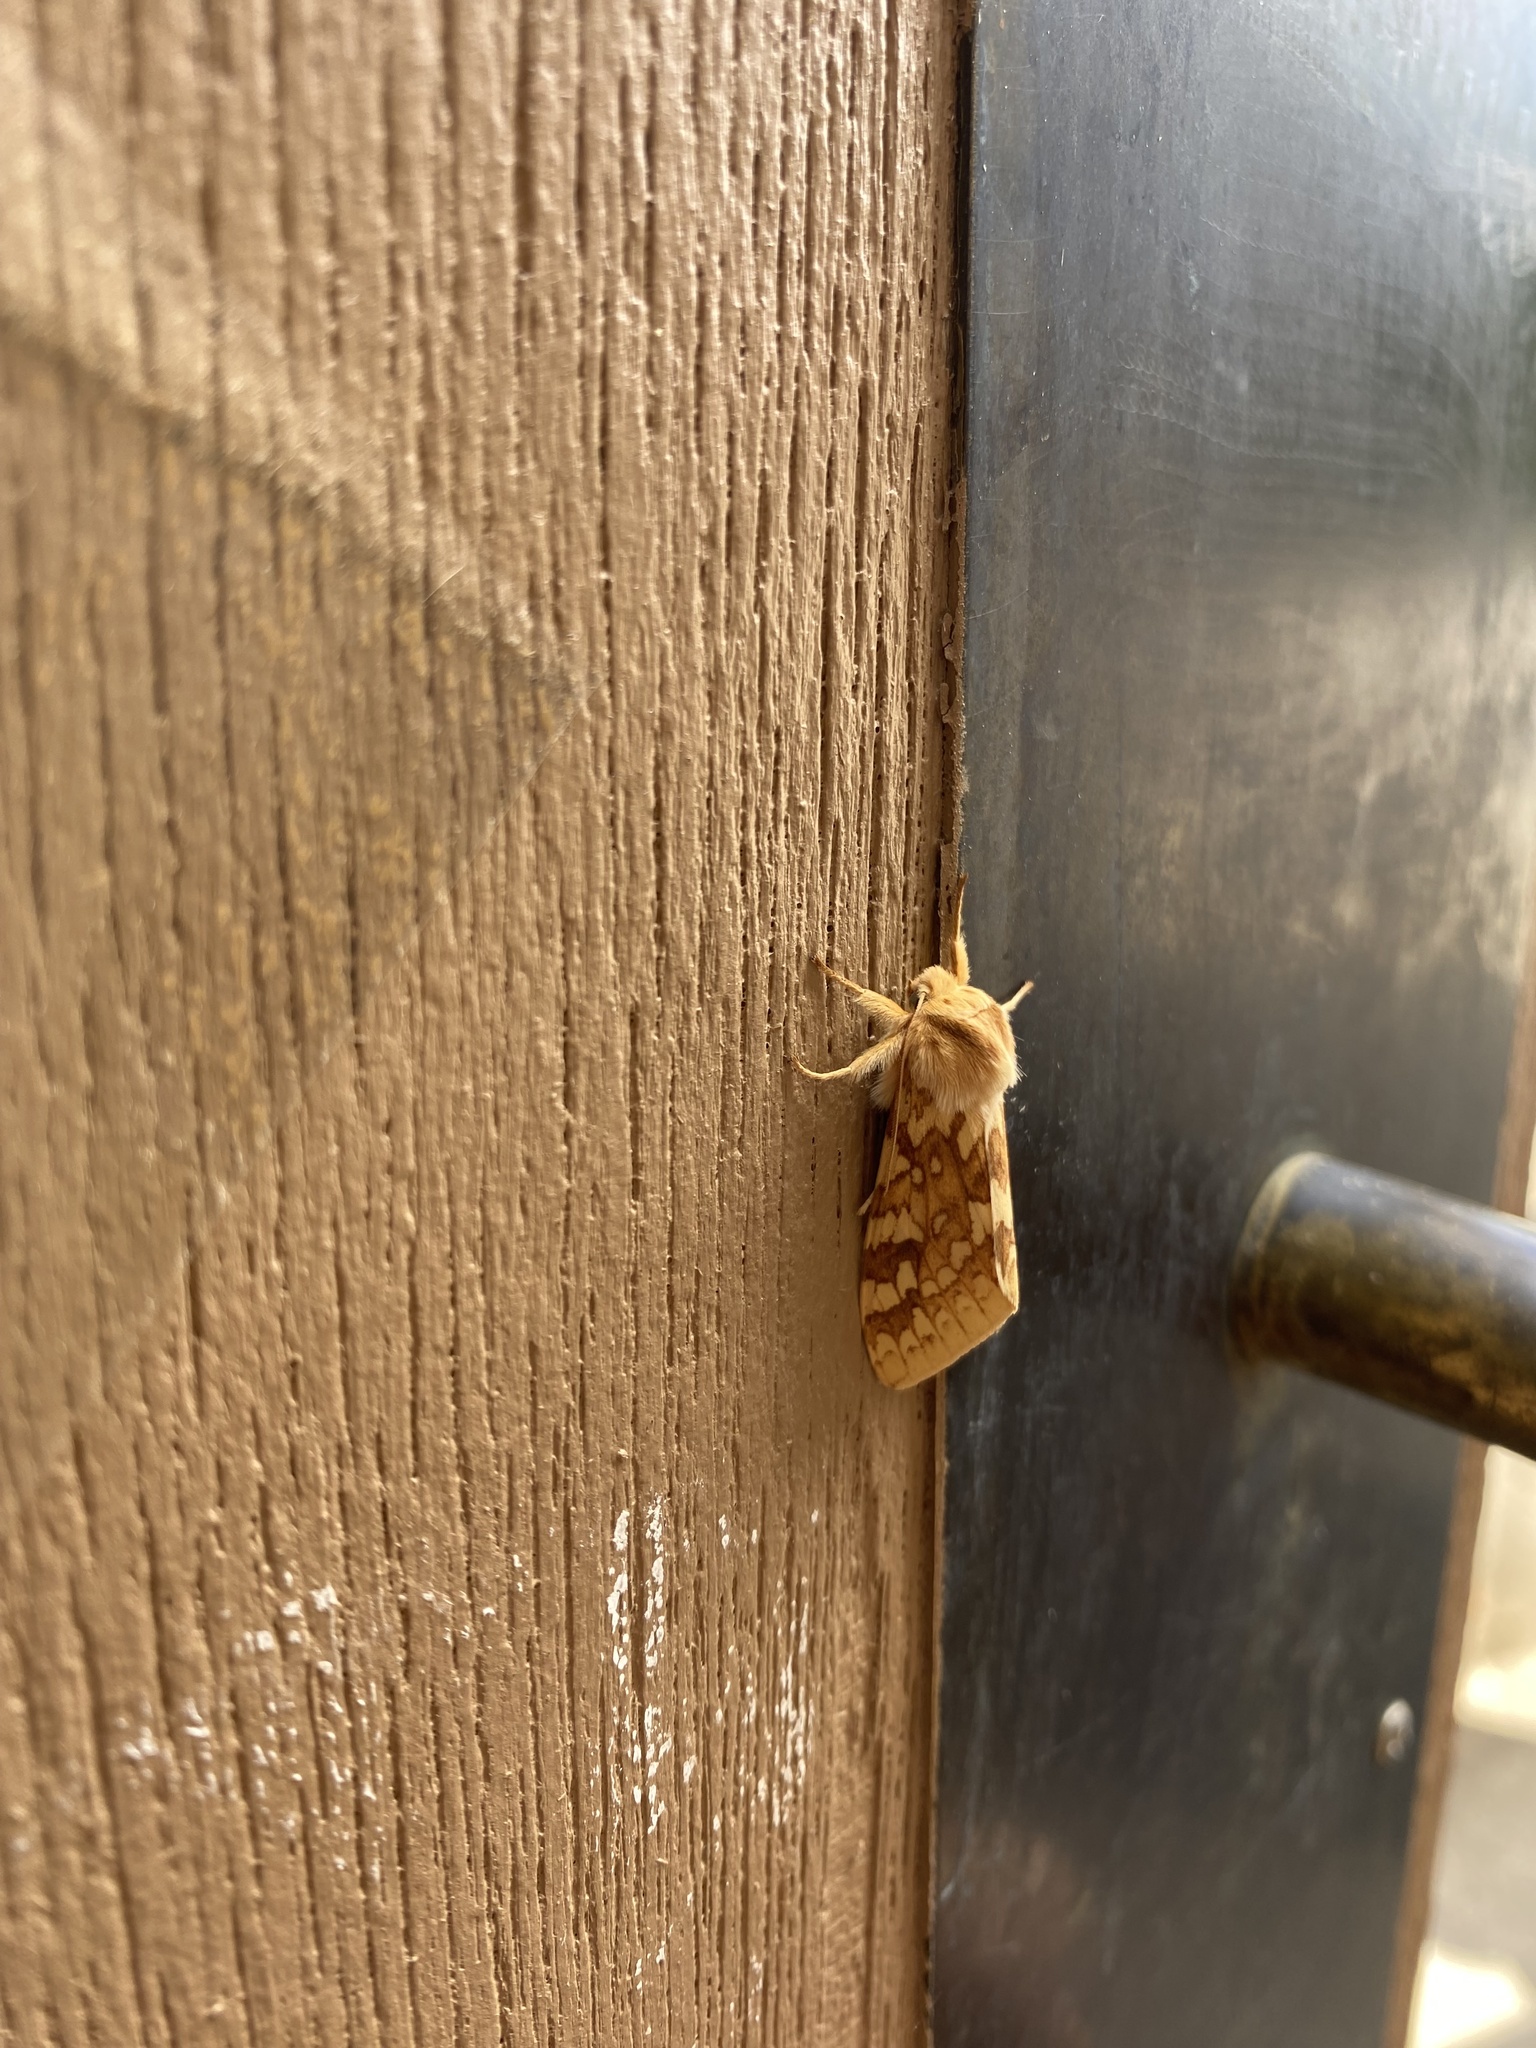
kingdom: Animalia
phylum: Arthropoda
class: Insecta
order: Lepidoptera
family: Erebidae
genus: Lophocampa
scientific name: Lophocampa maculata
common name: Spotted tussock moth
